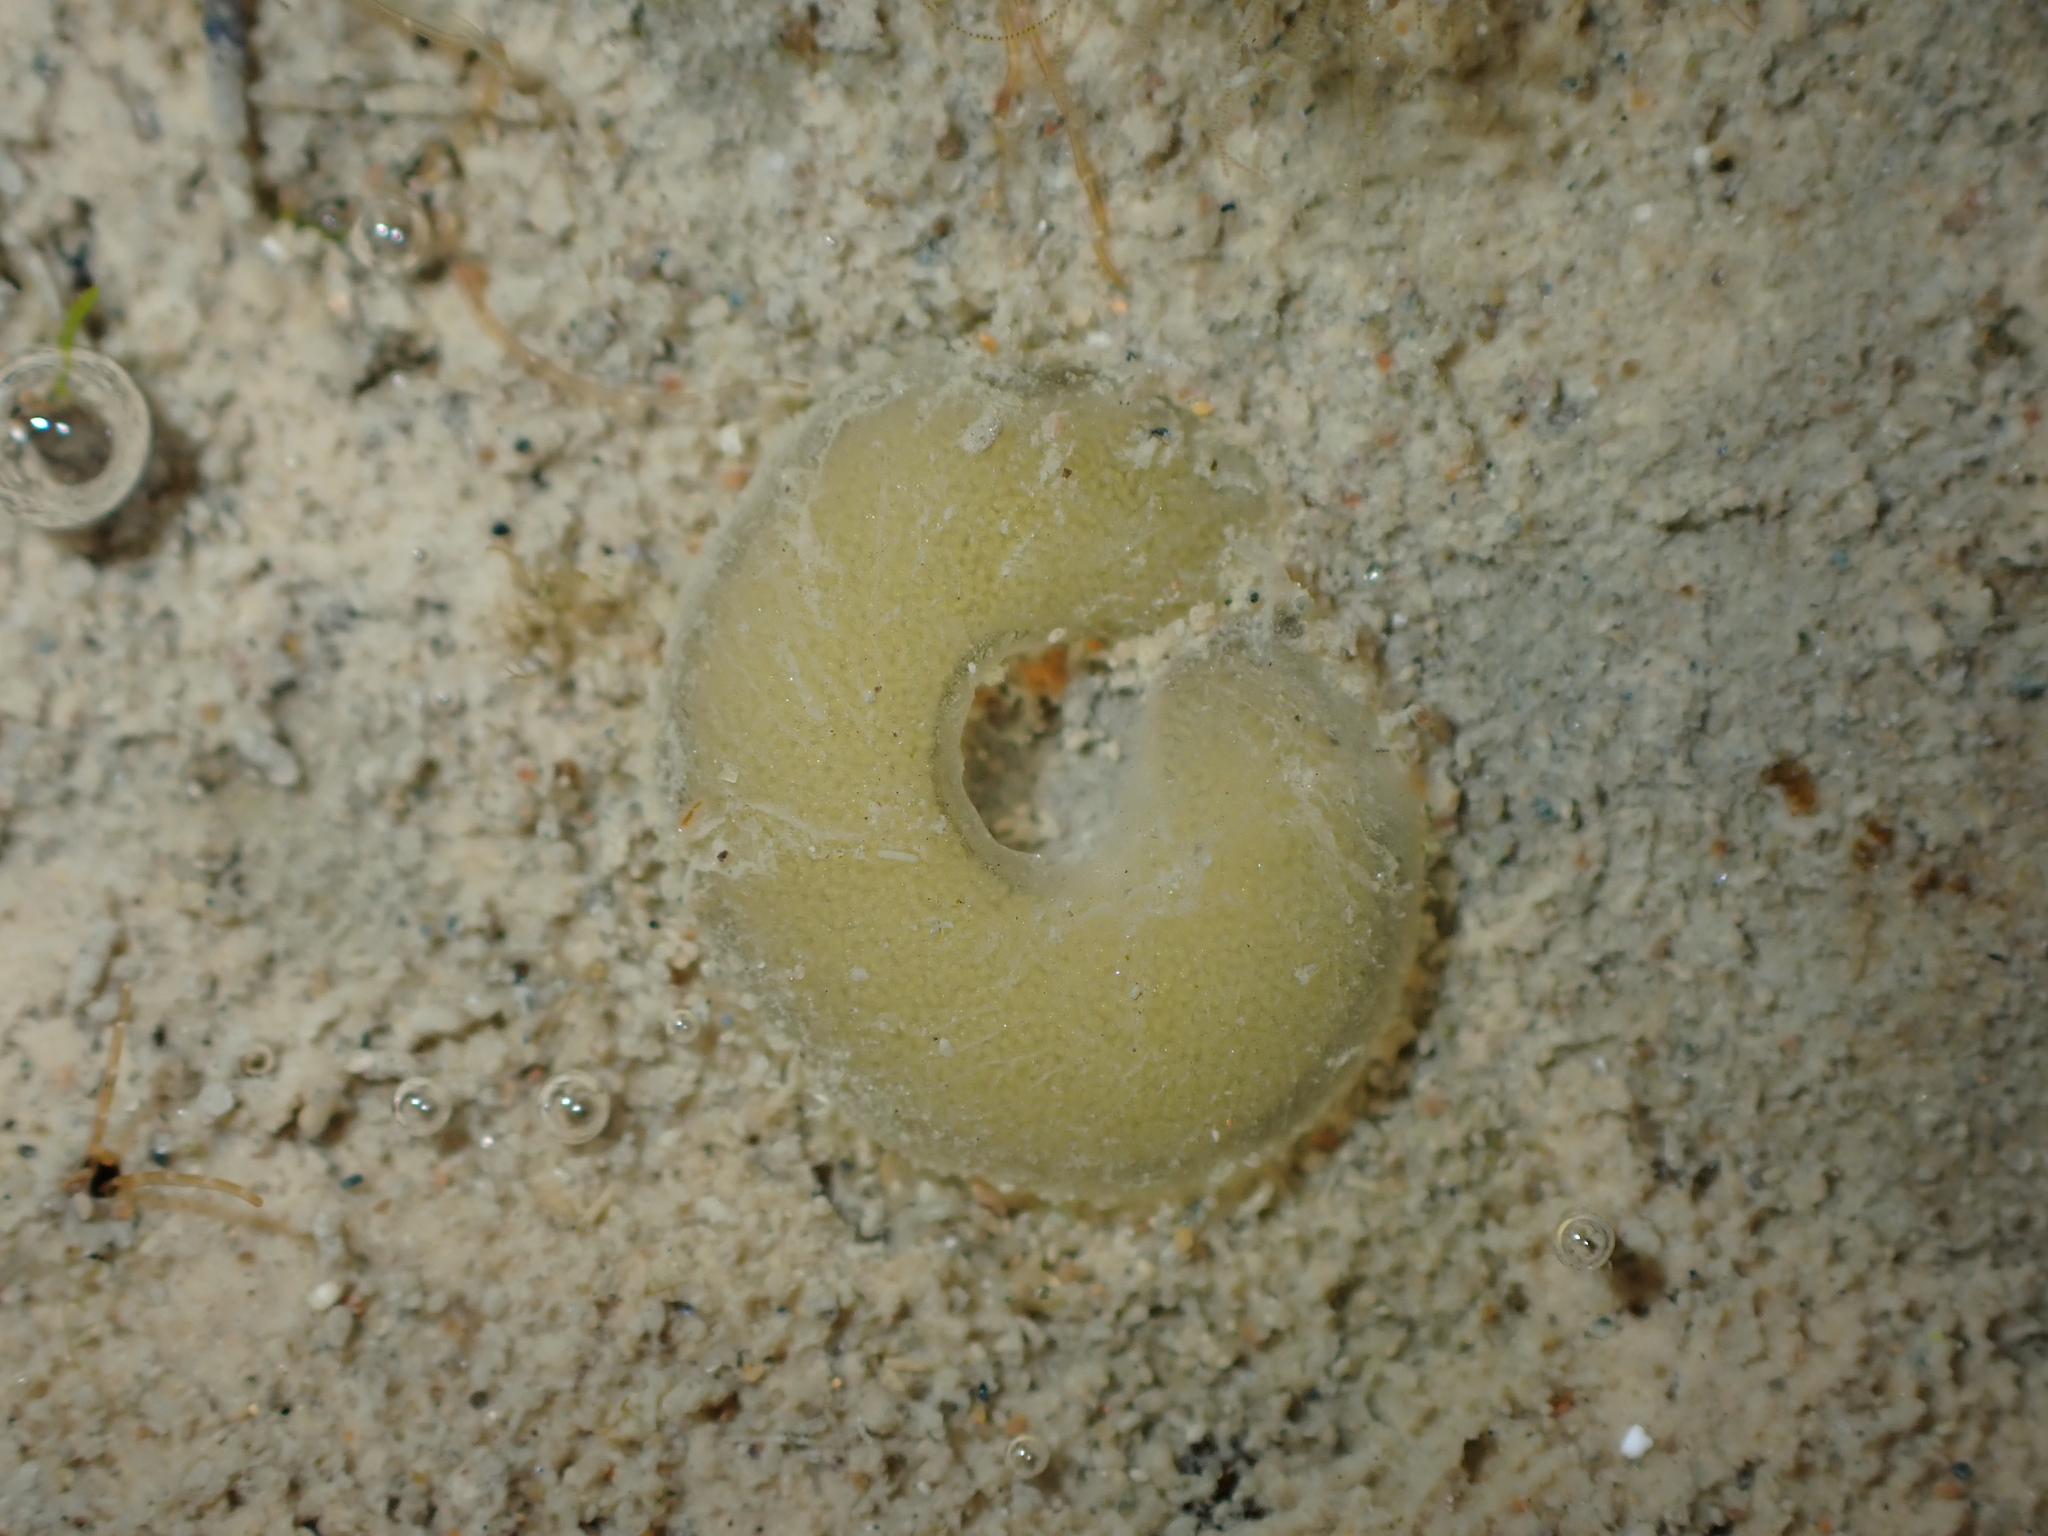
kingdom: Animalia
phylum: Mollusca
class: Gastropoda
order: Siphonariida
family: Siphonariidae
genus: Siphonaria
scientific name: Siphonaria australis
